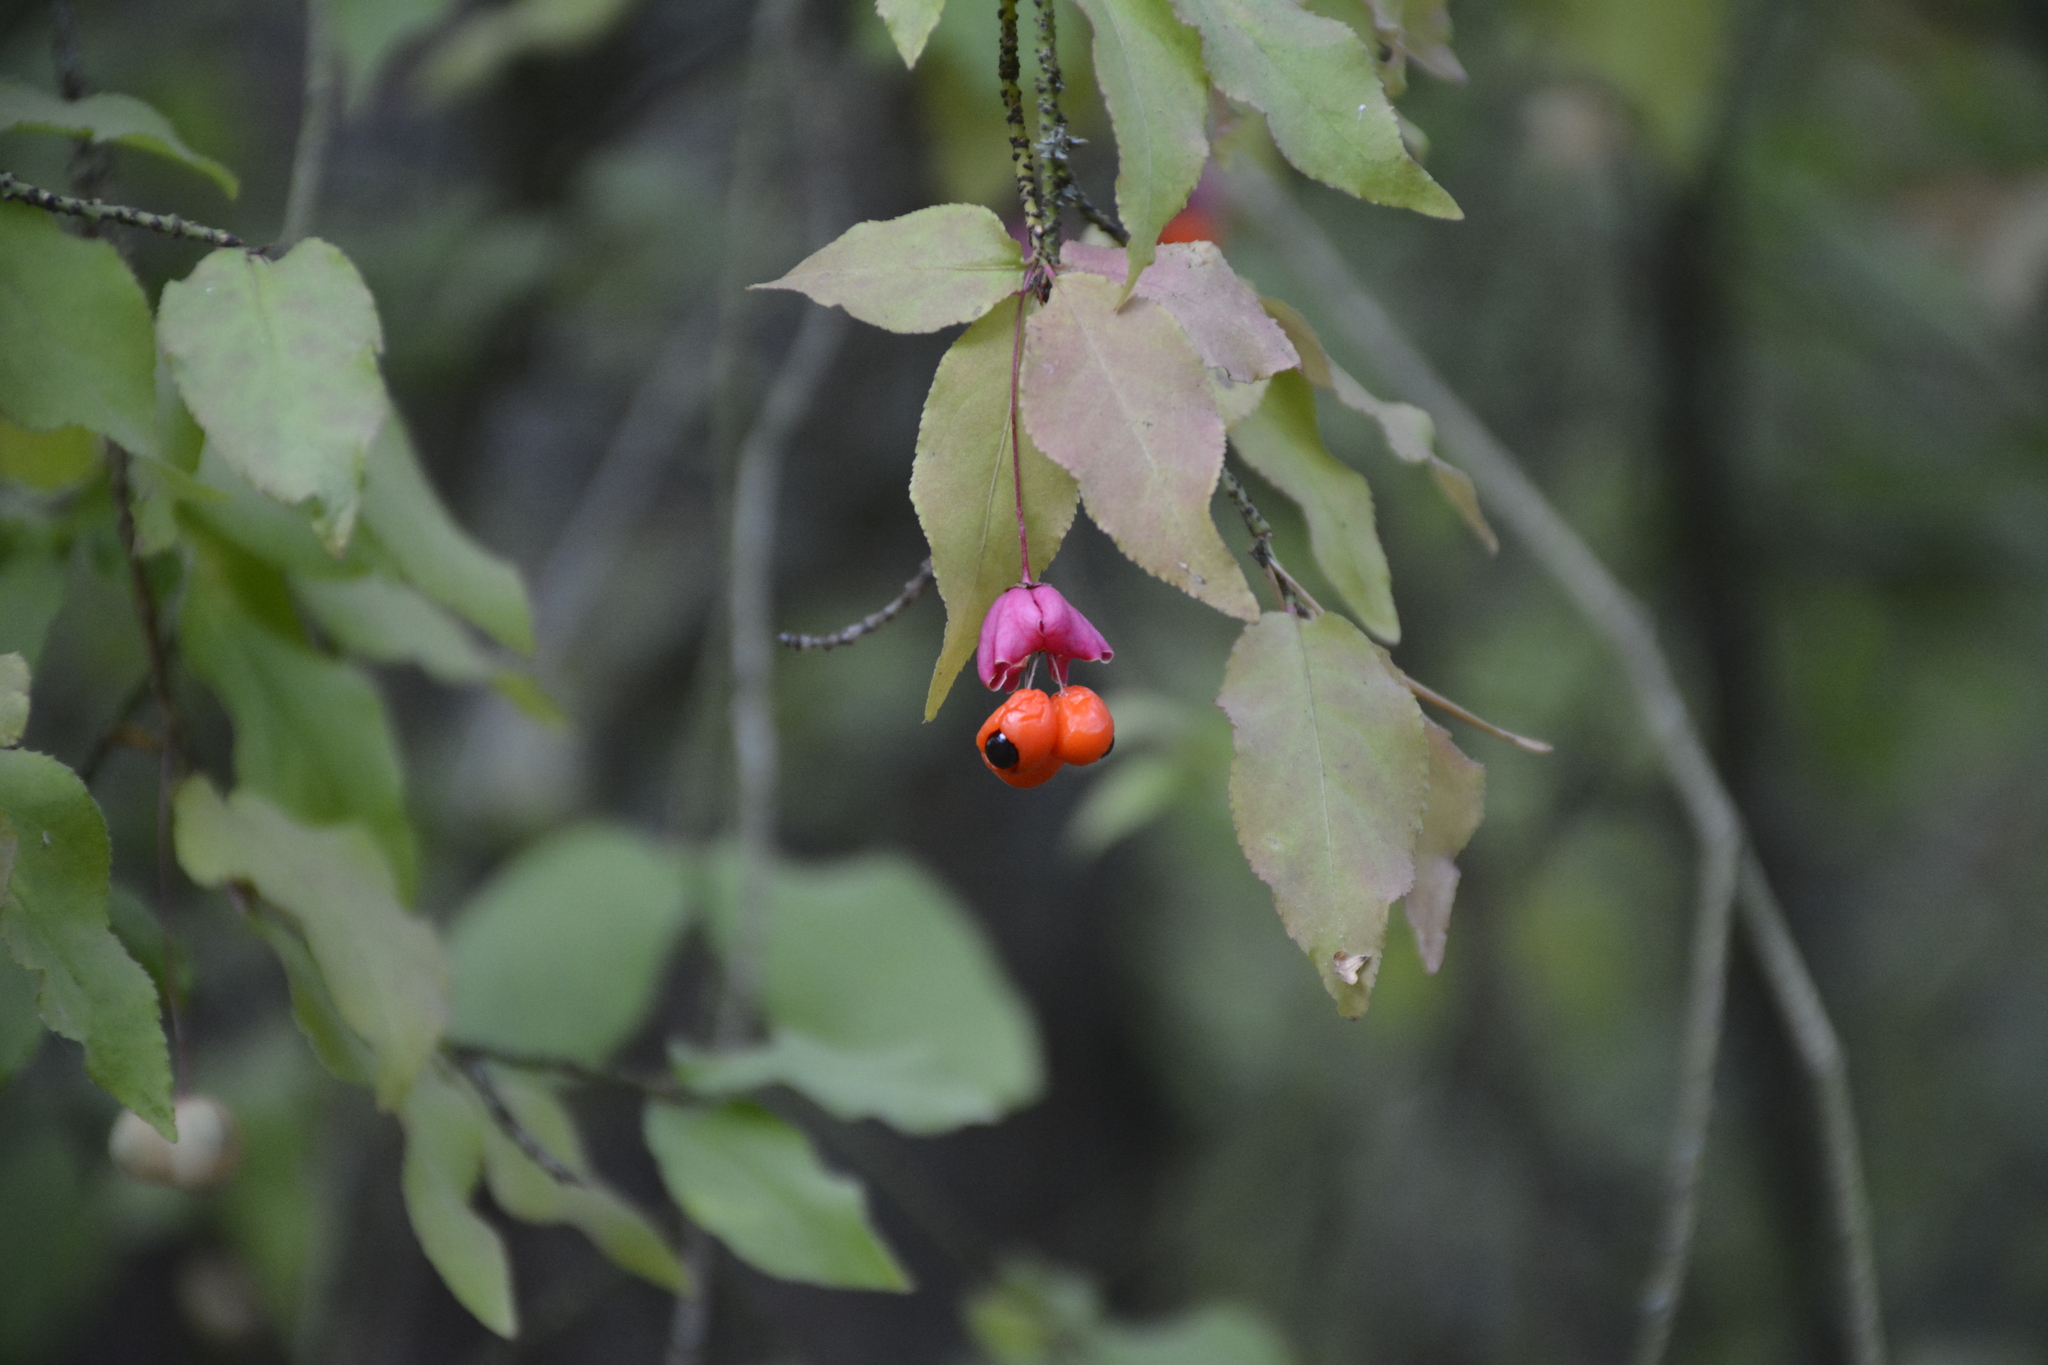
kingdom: Plantae
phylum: Tracheophyta
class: Magnoliopsida
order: Celastrales
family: Celastraceae
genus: Euonymus
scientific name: Euonymus verrucosus
